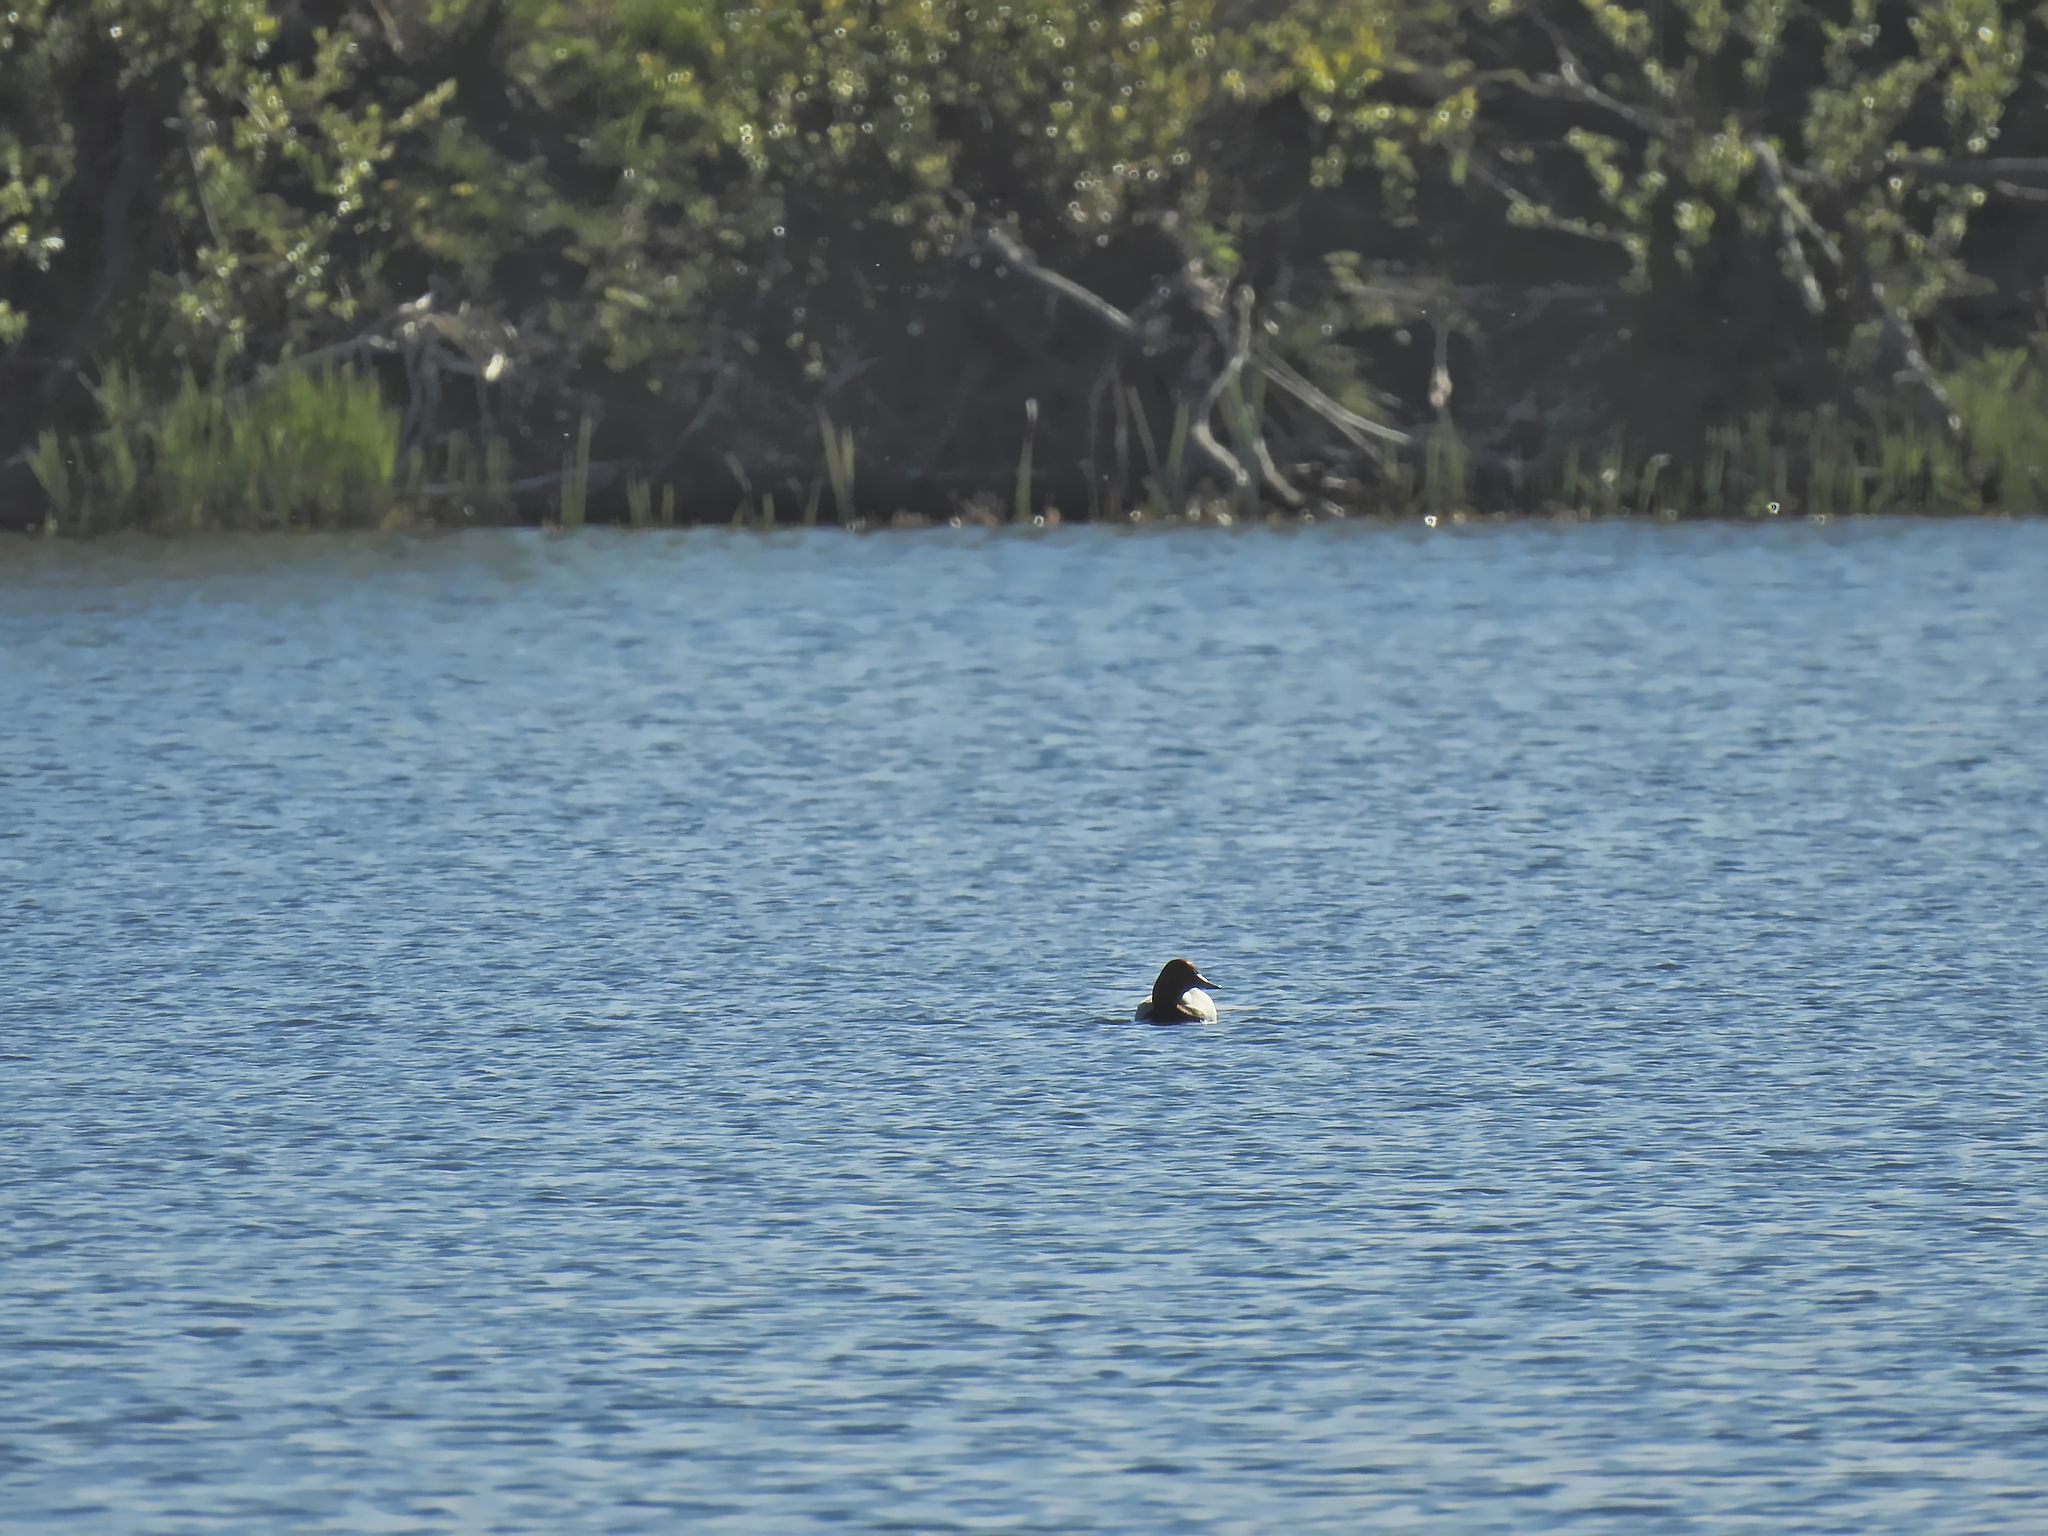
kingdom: Animalia
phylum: Chordata
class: Aves
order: Anseriformes
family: Anatidae
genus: Aythya
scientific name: Aythya ferina
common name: Common pochard
